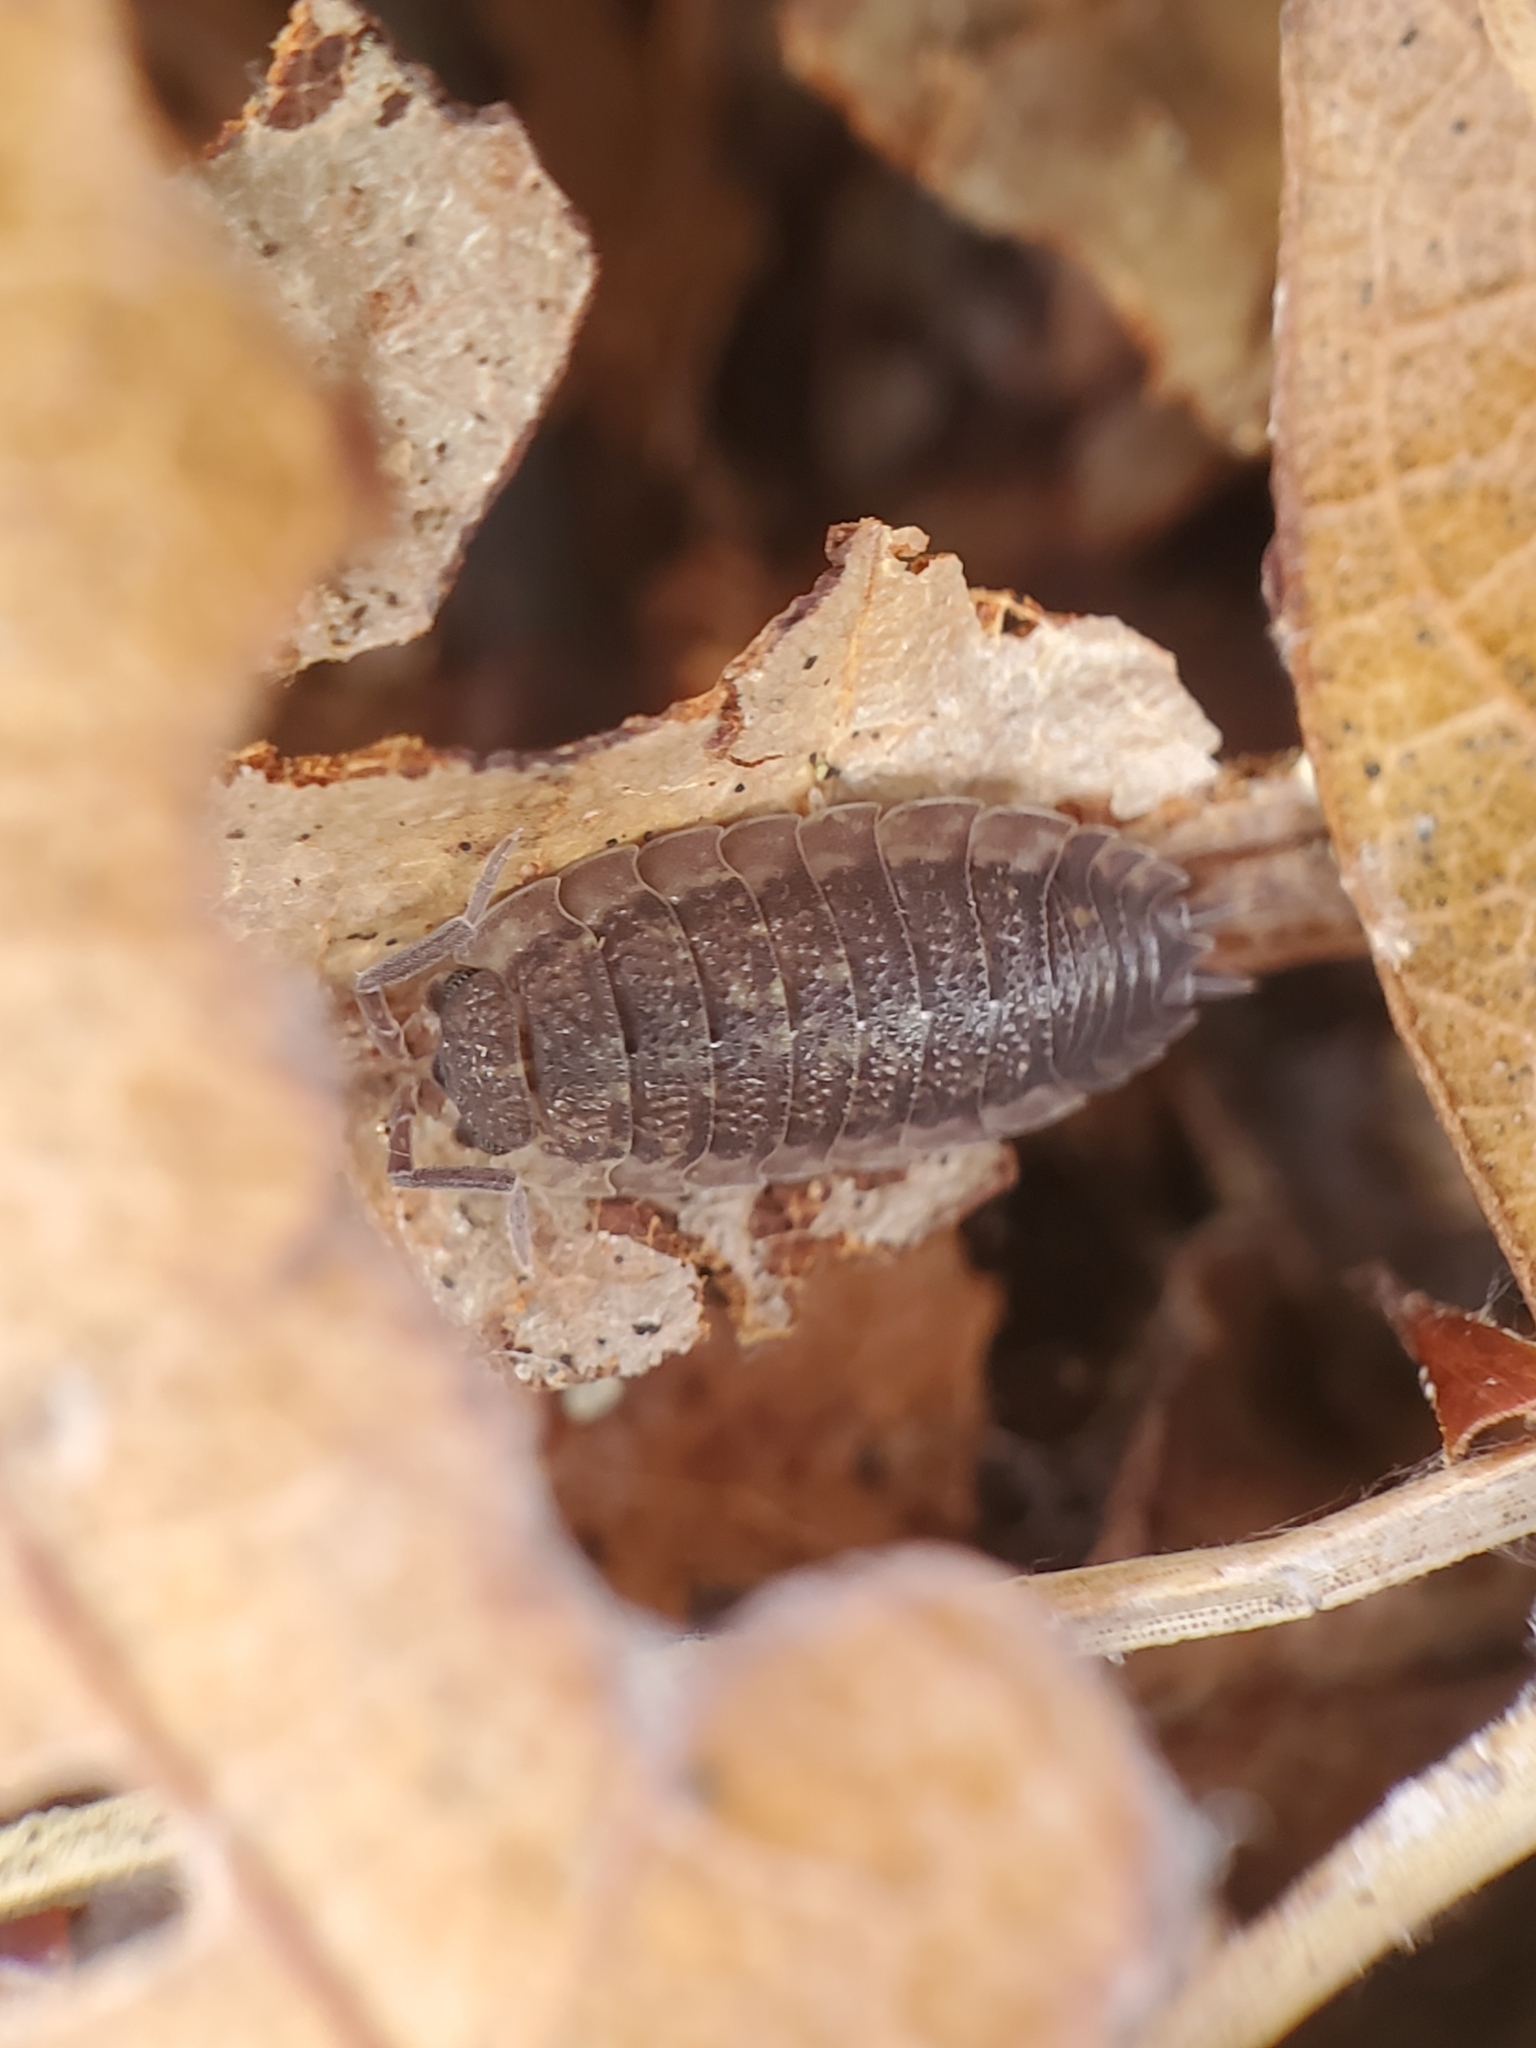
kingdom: Animalia
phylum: Arthropoda
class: Malacostraca
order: Isopoda
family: Porcellionidae
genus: Porcellio
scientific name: Porcellio scaber
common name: Common rough woodlouse
